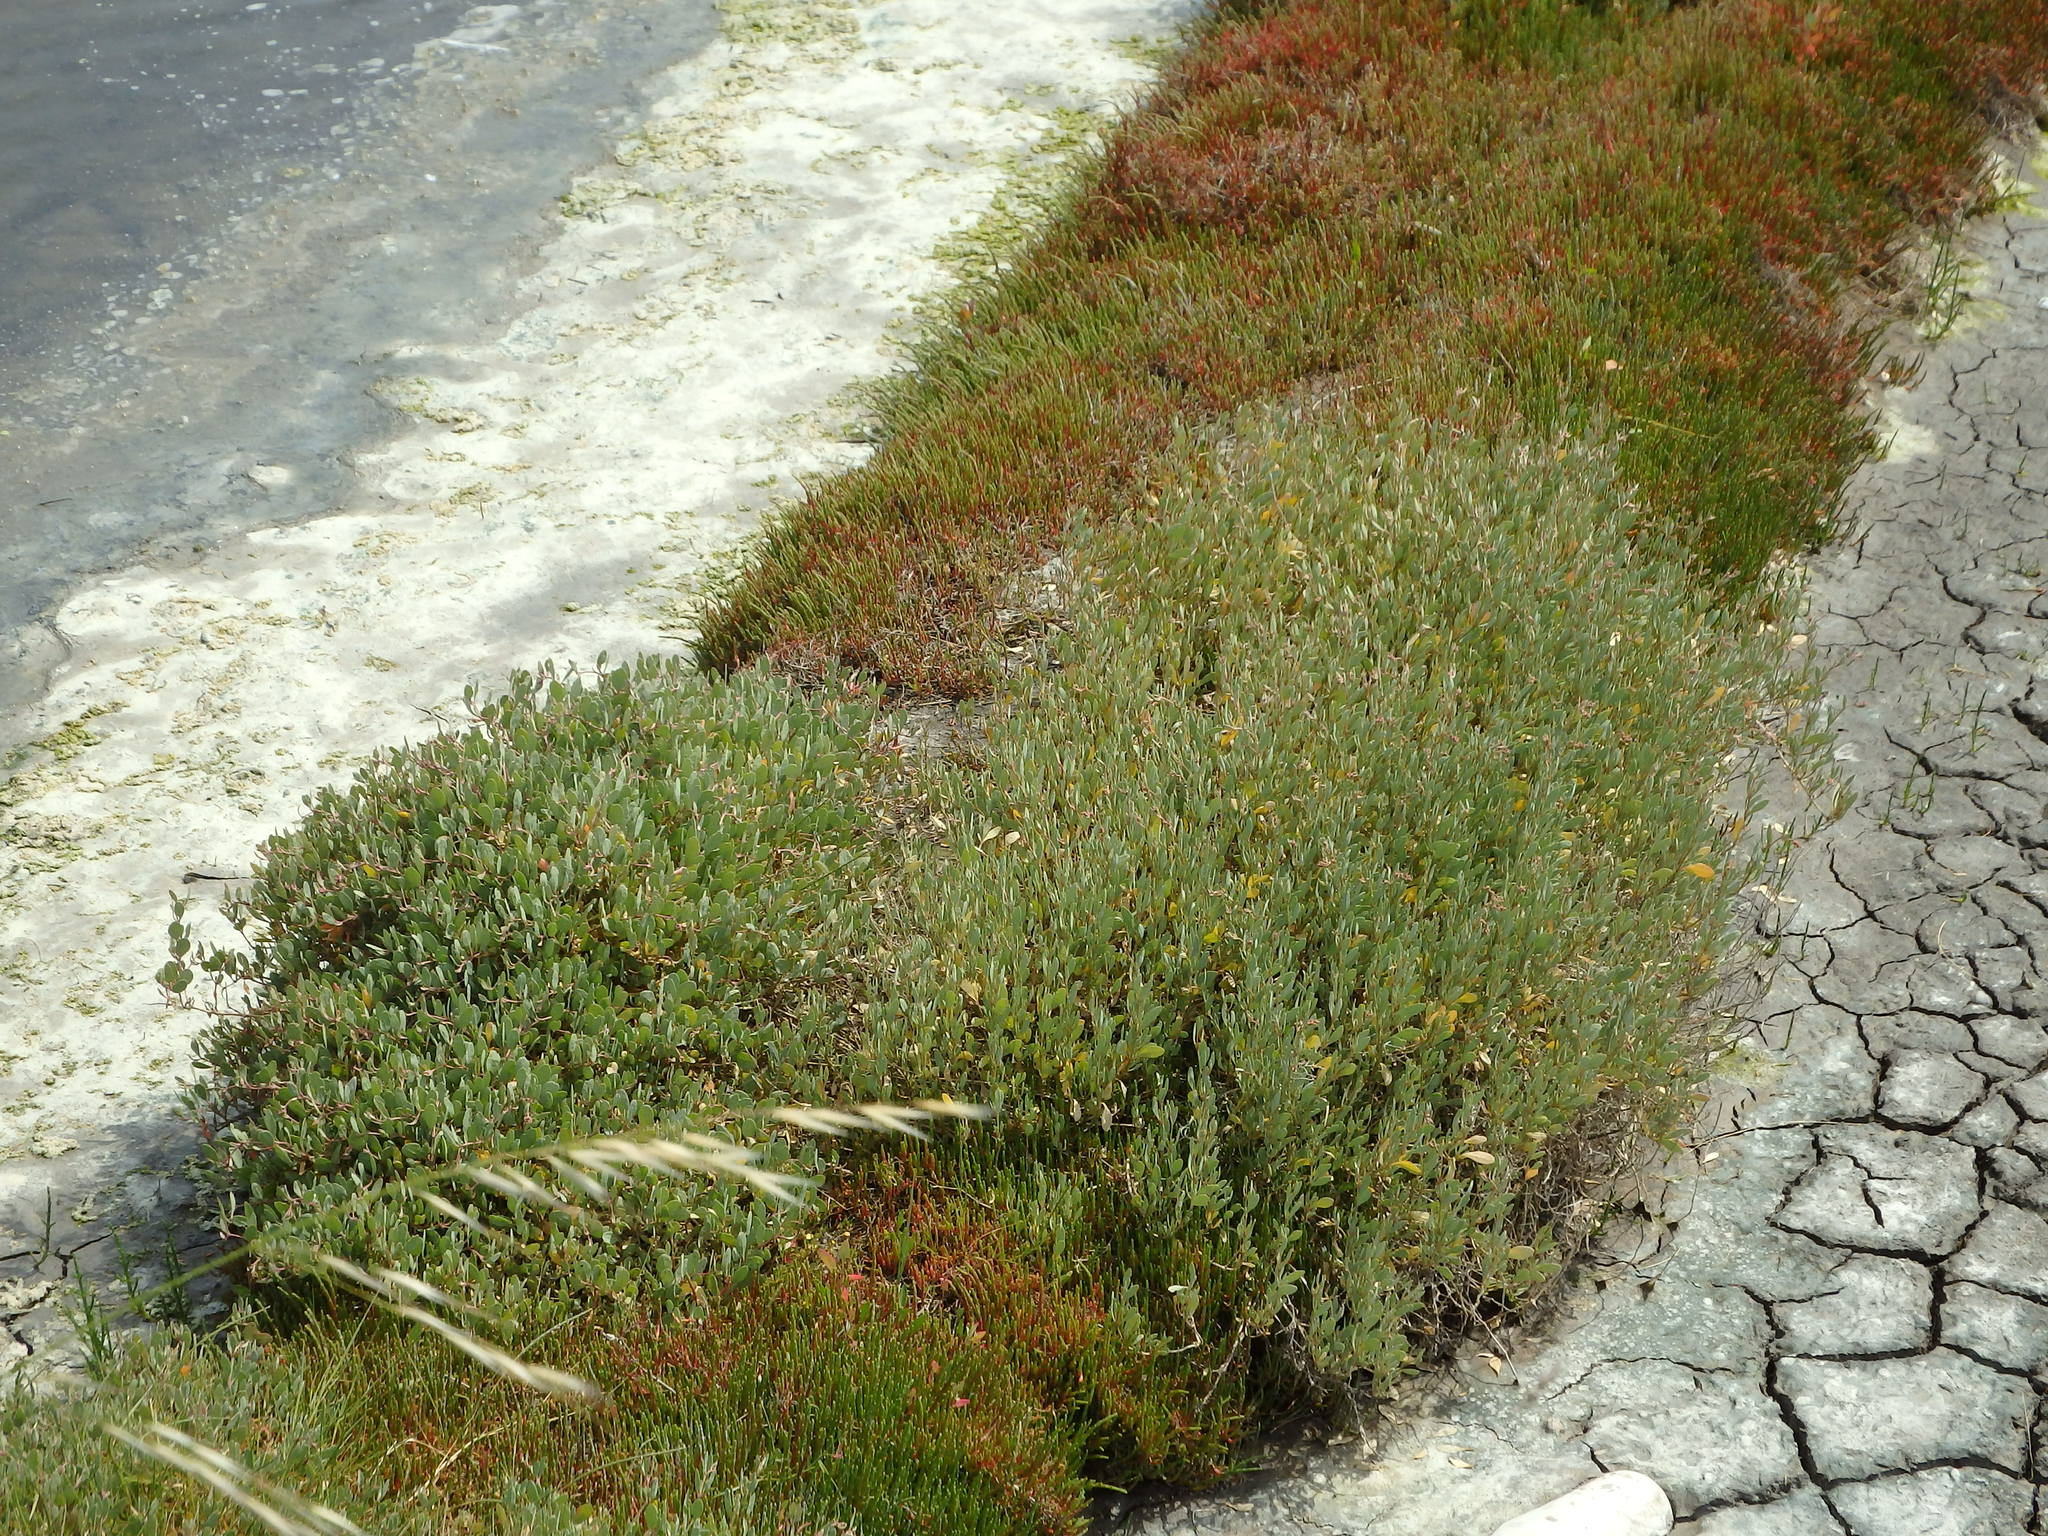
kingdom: Plantae
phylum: Tracheophyta
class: Magnoliopsida
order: Caryophyllales
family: Amaranthaceae
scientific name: Amaranthaceae
